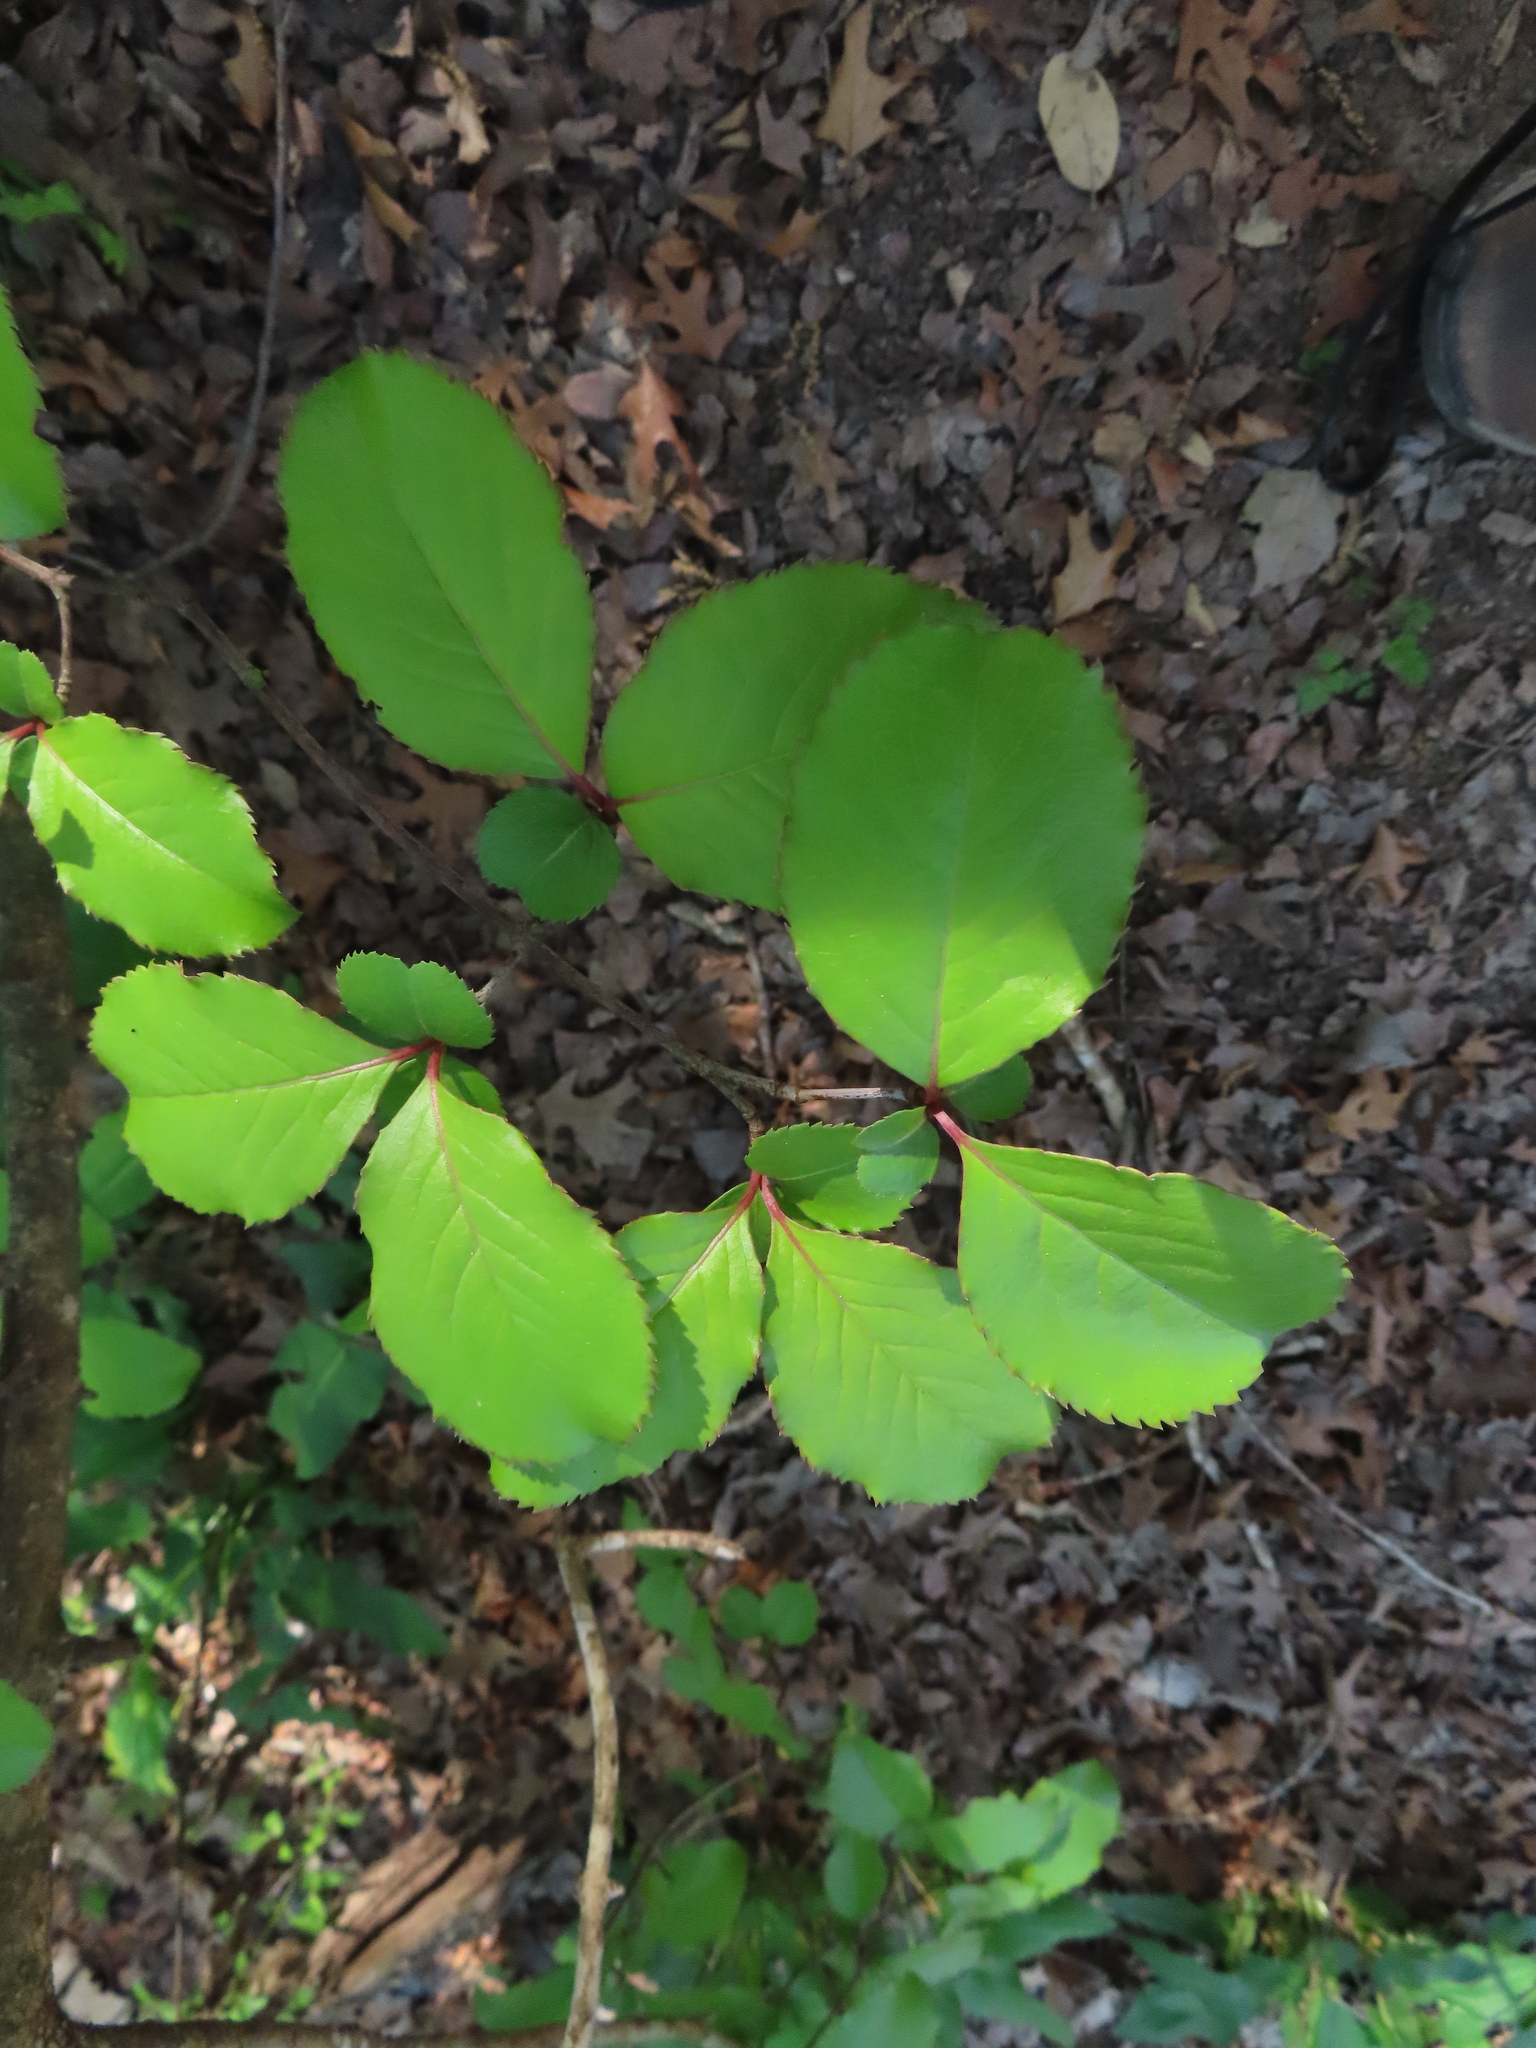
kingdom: Plantae
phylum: Tracheophyta
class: Magnoliopsida
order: Dipsacales
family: Viburnaceae
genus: Viburnum
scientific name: Viburnum rufidulum
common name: Blue haw
